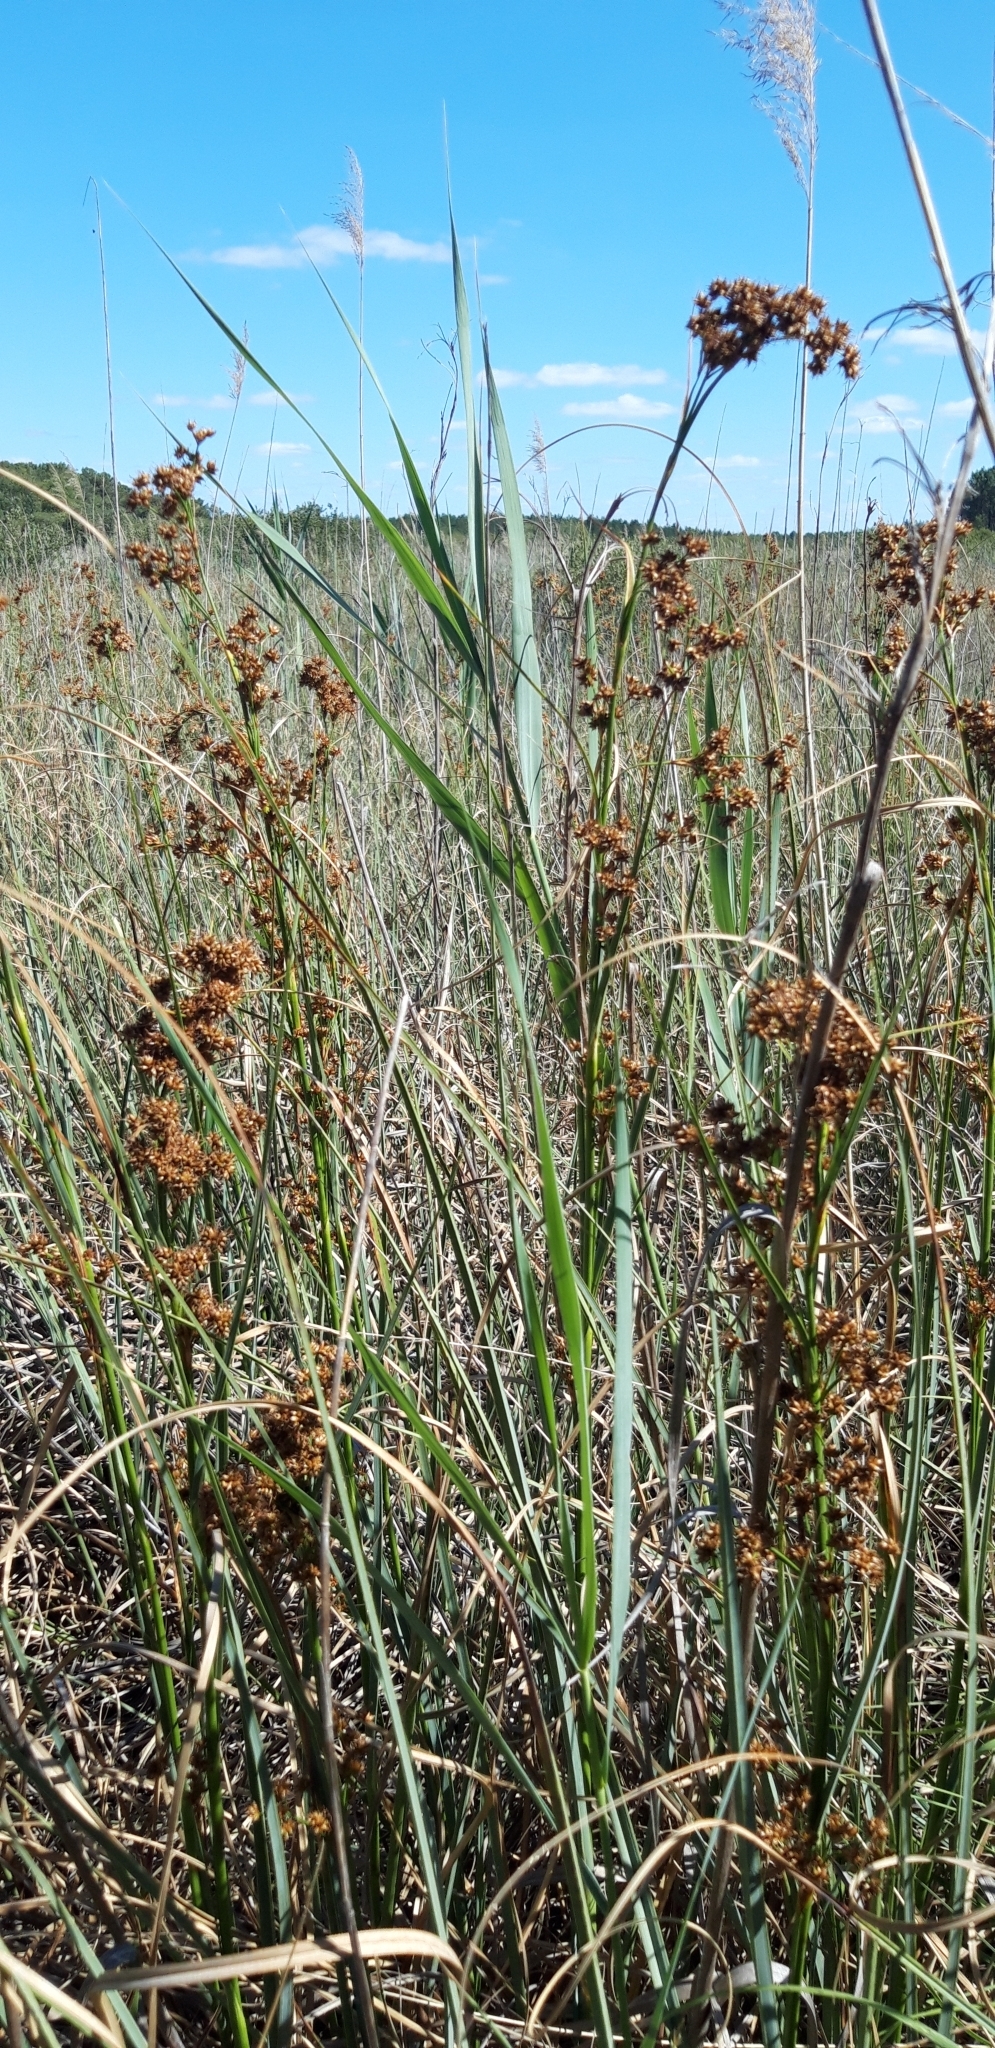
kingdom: Plantae
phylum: Tracheophyta
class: Liliopsida
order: Poales
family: Cyperaceae
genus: Cladium
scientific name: Cladium mariscus
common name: Great fen-sedge
